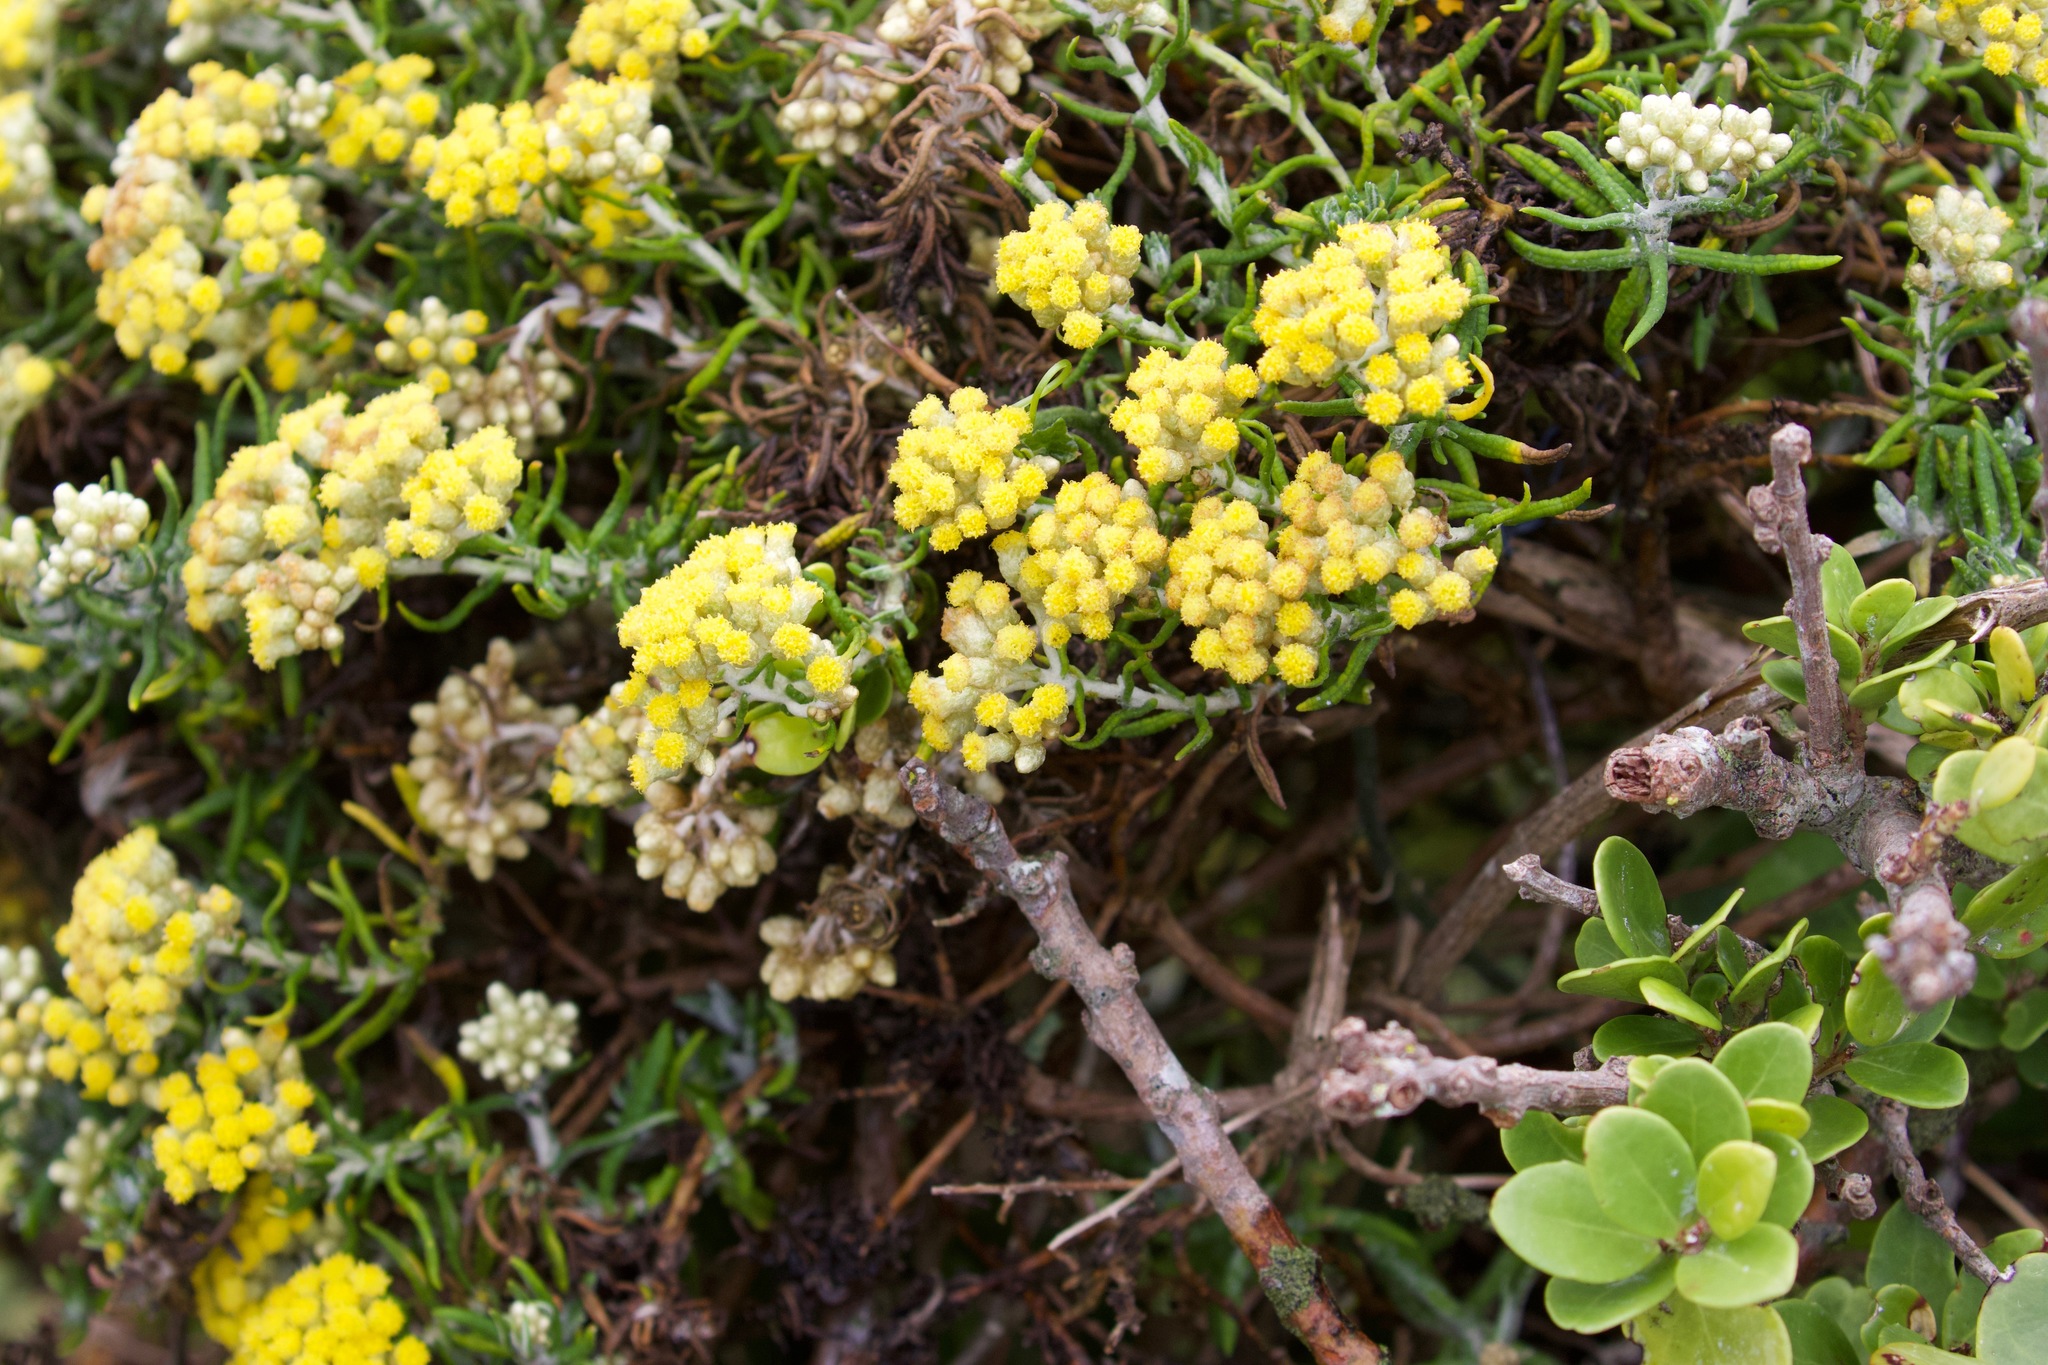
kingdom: Plantae
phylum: Tracheophyta
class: Magnoliopsida
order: Asterales
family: Asteraceae
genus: Nidorella
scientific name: Nidorella foetida
